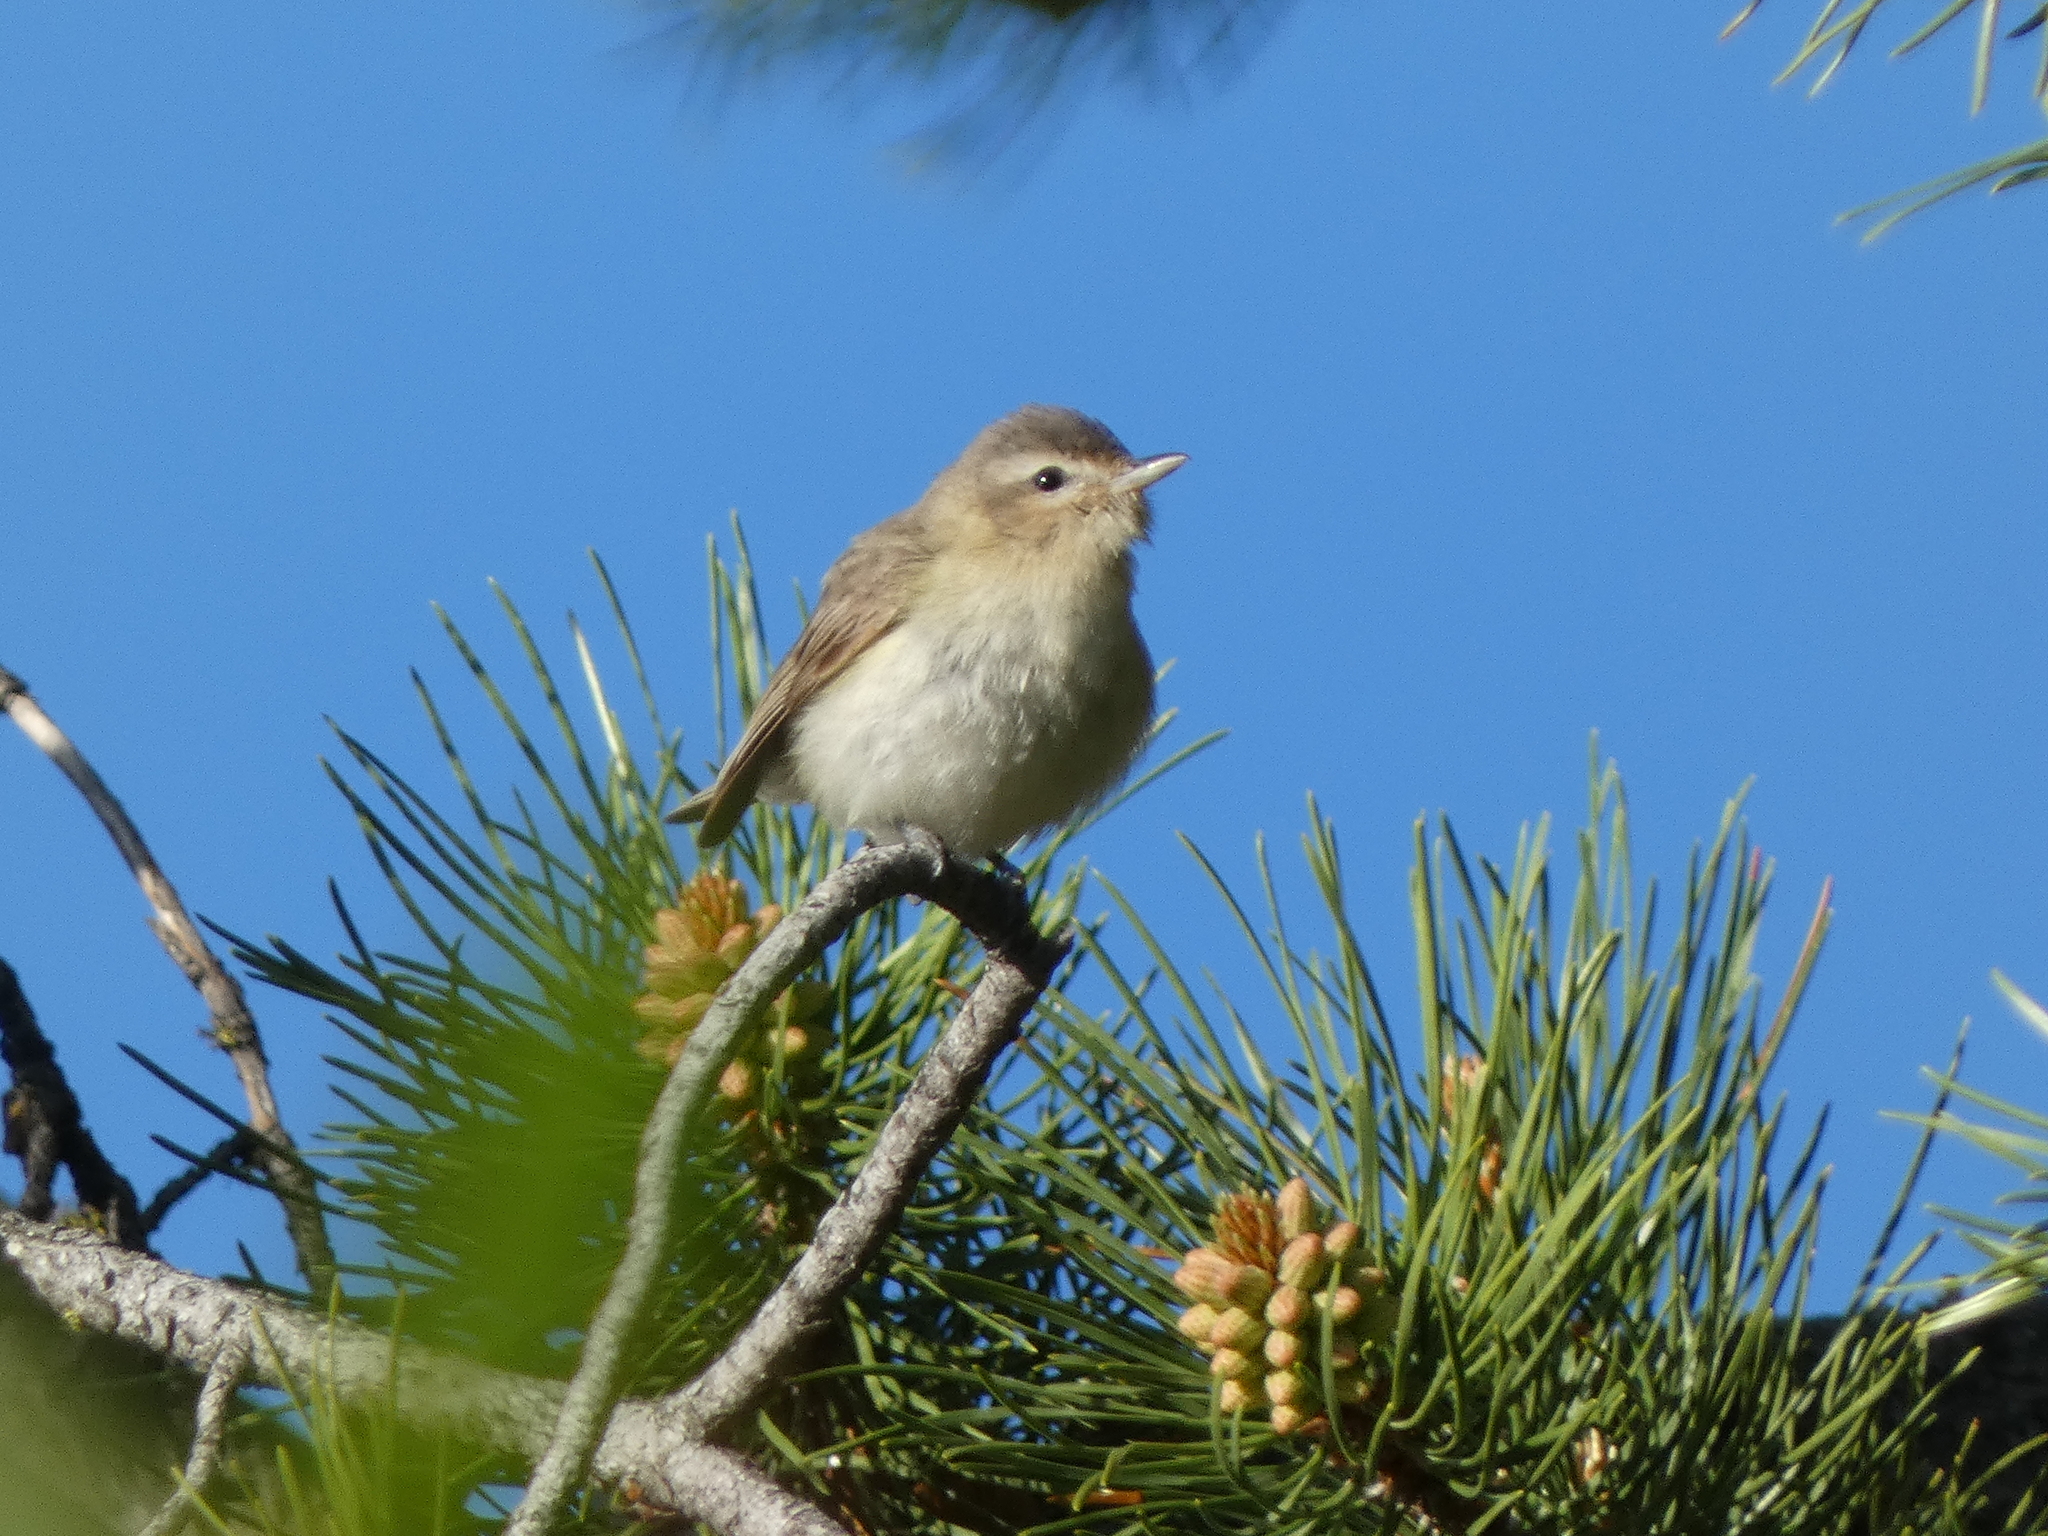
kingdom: Animalia
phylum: Chordata
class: Aves
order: Passeriformes
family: Vireonidae
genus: Vireo
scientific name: Vireo gilvus
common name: Warbling vireo
